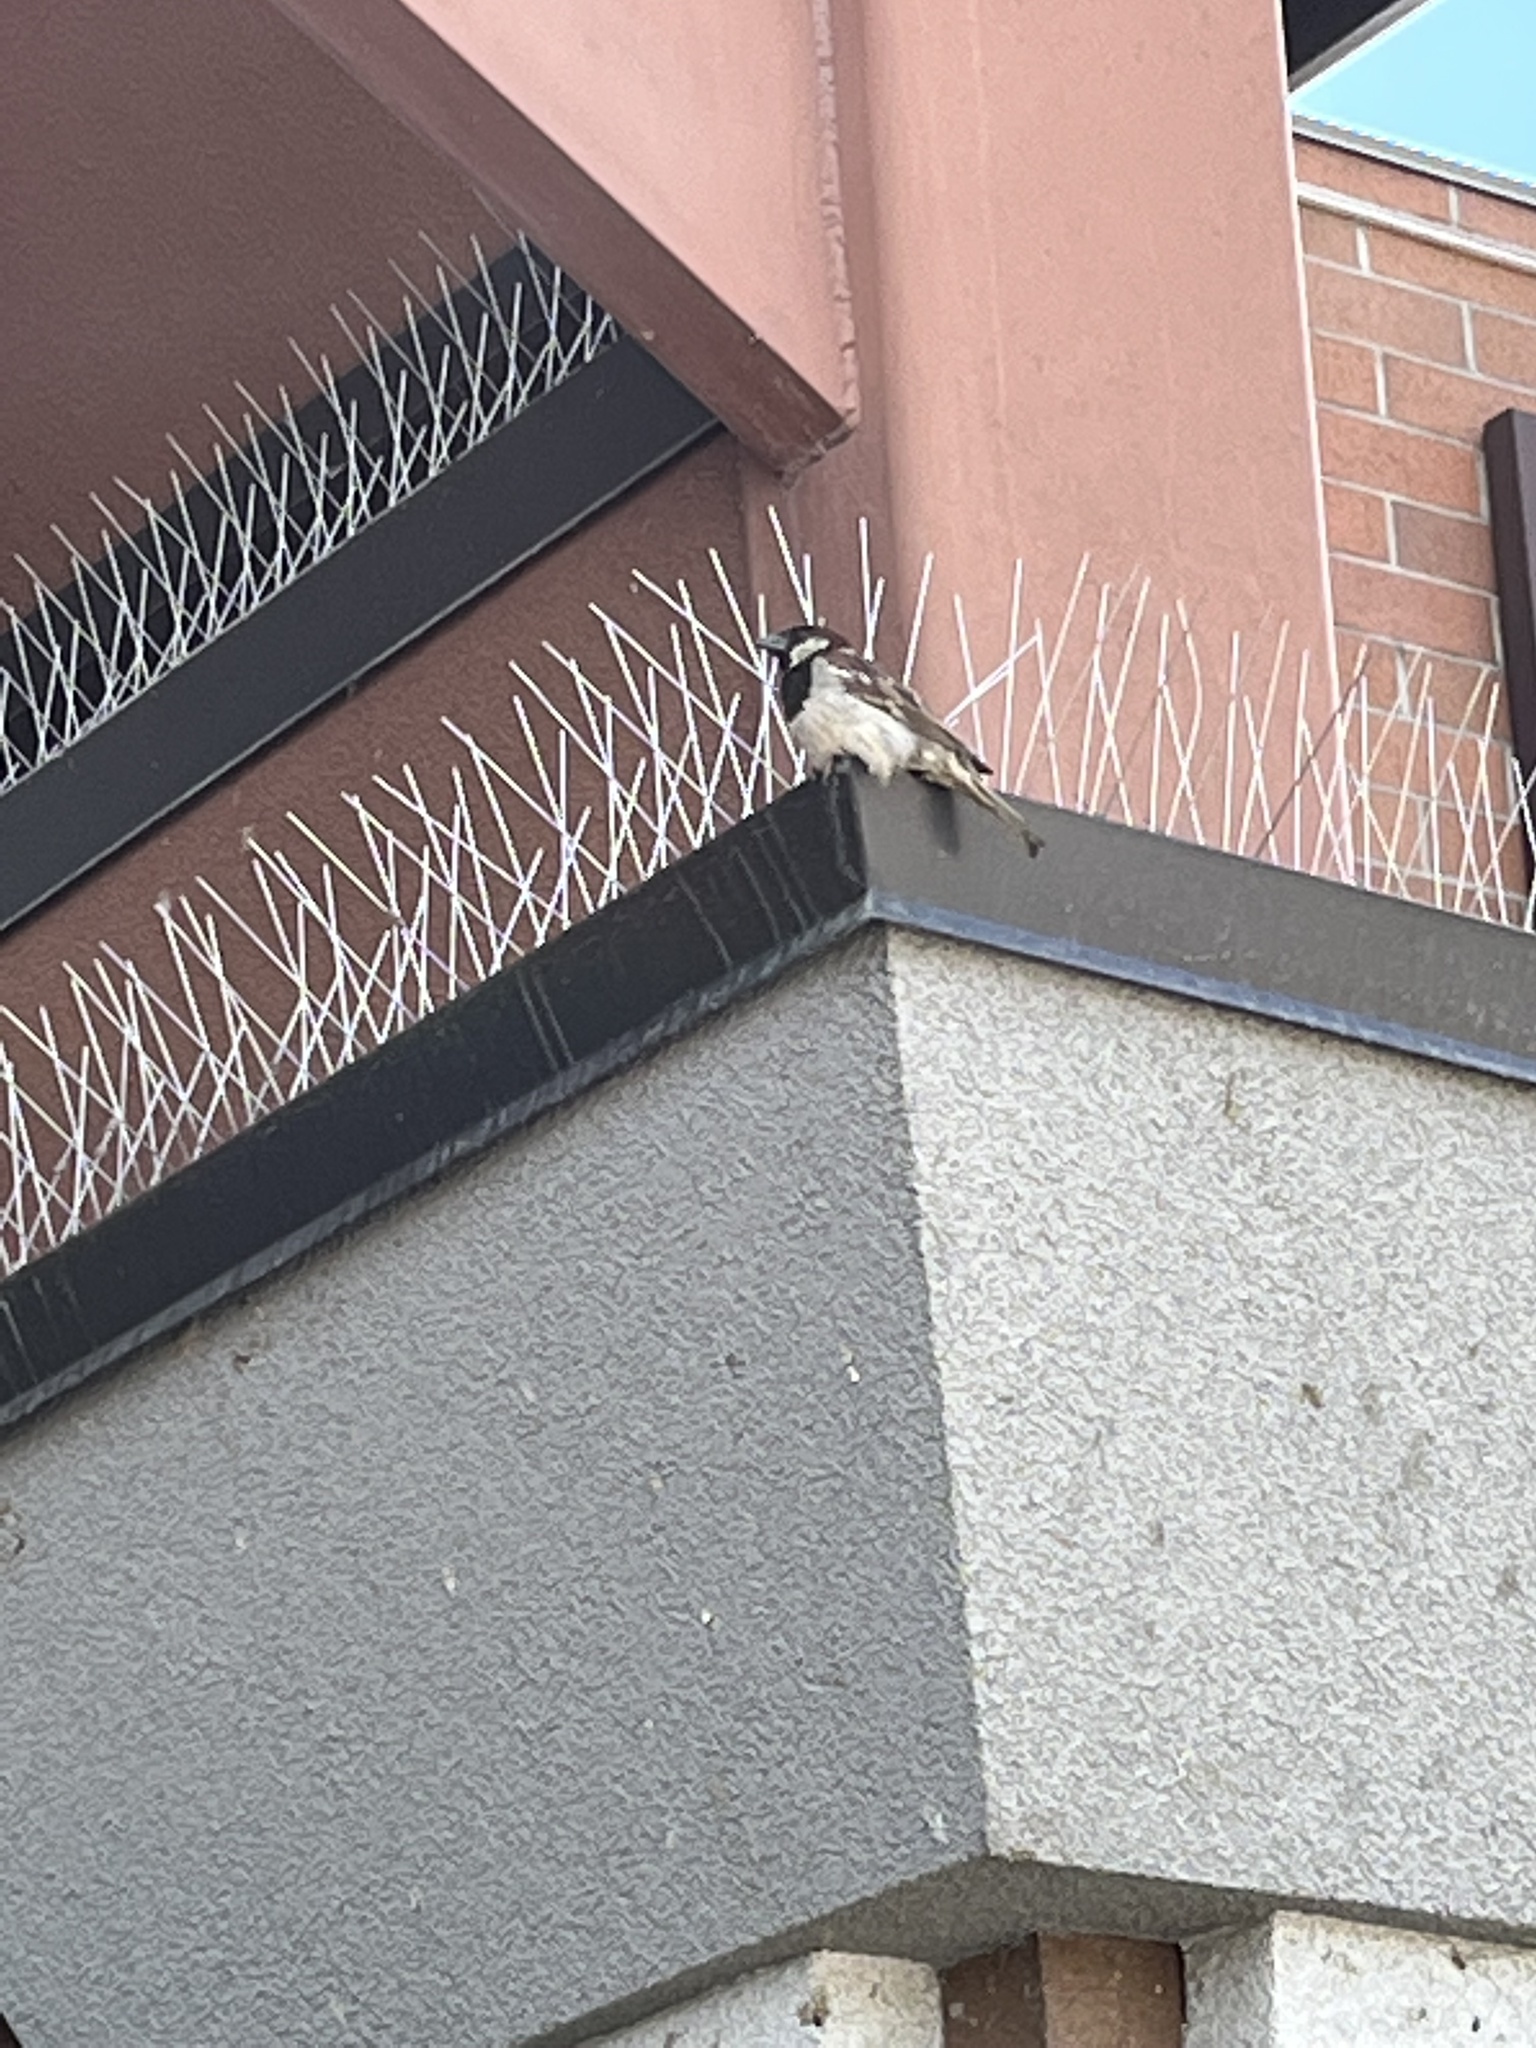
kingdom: Animalia
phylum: Chordata
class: Aves
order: Passeriformes
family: Passeridae
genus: Passer
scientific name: Passer domesticus
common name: House sparrow
